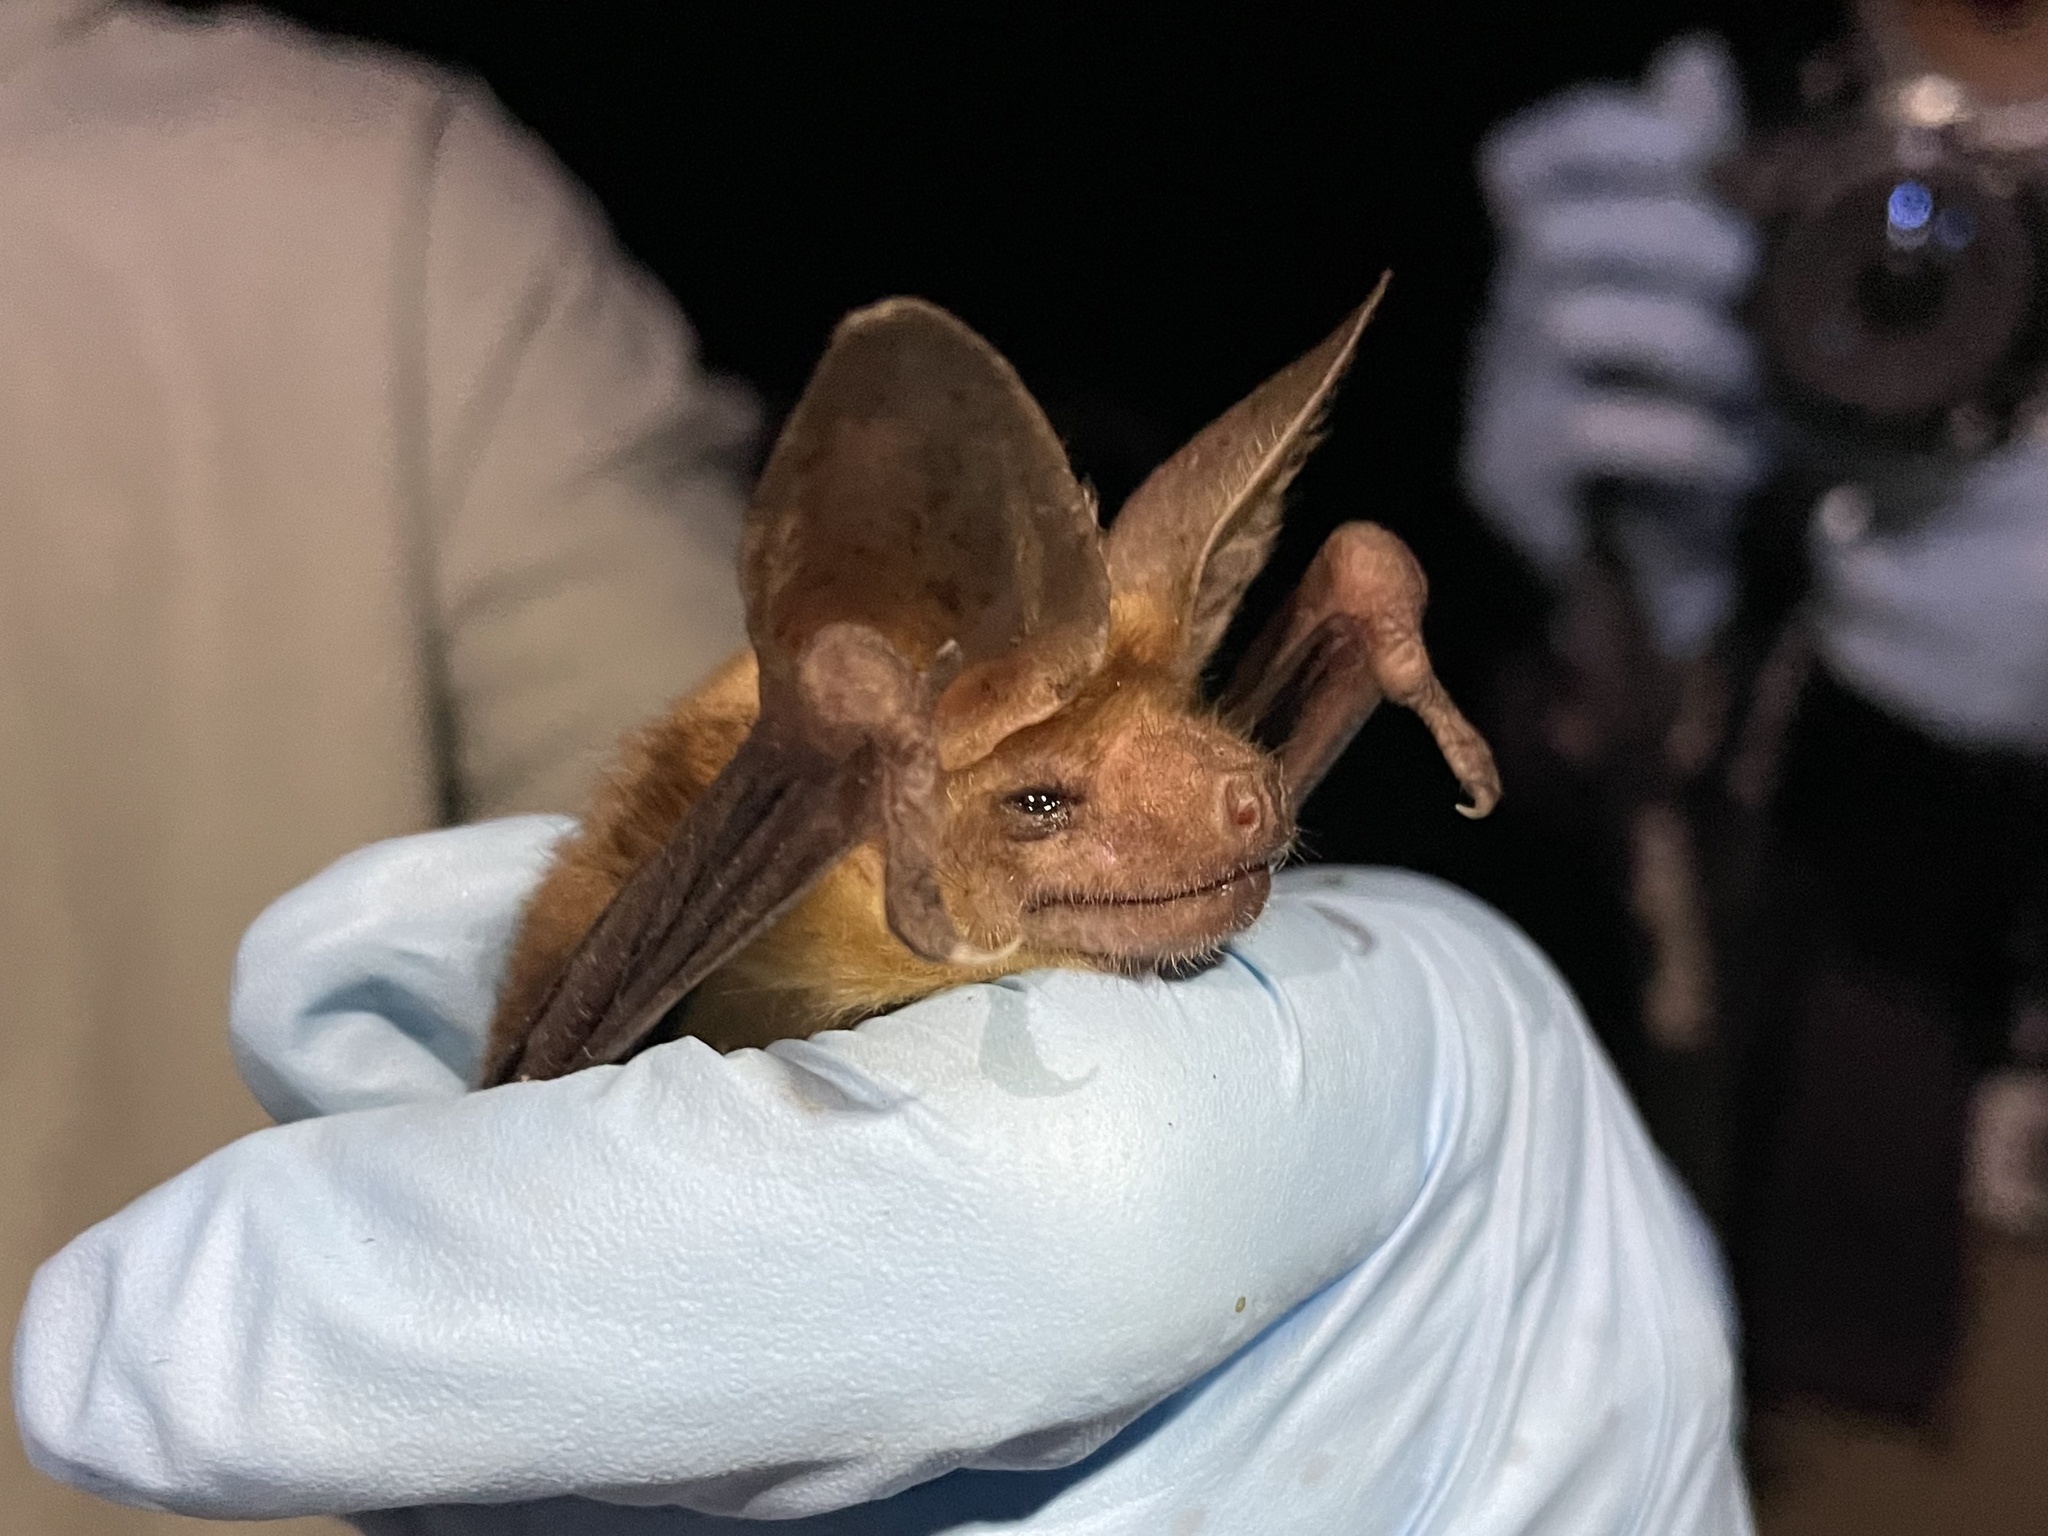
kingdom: Animalia
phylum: Chordata
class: Mammalia
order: Chiroptera
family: Vespertilionidae
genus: Antrozous
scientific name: Antrozous pallidus
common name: Pallid bat
